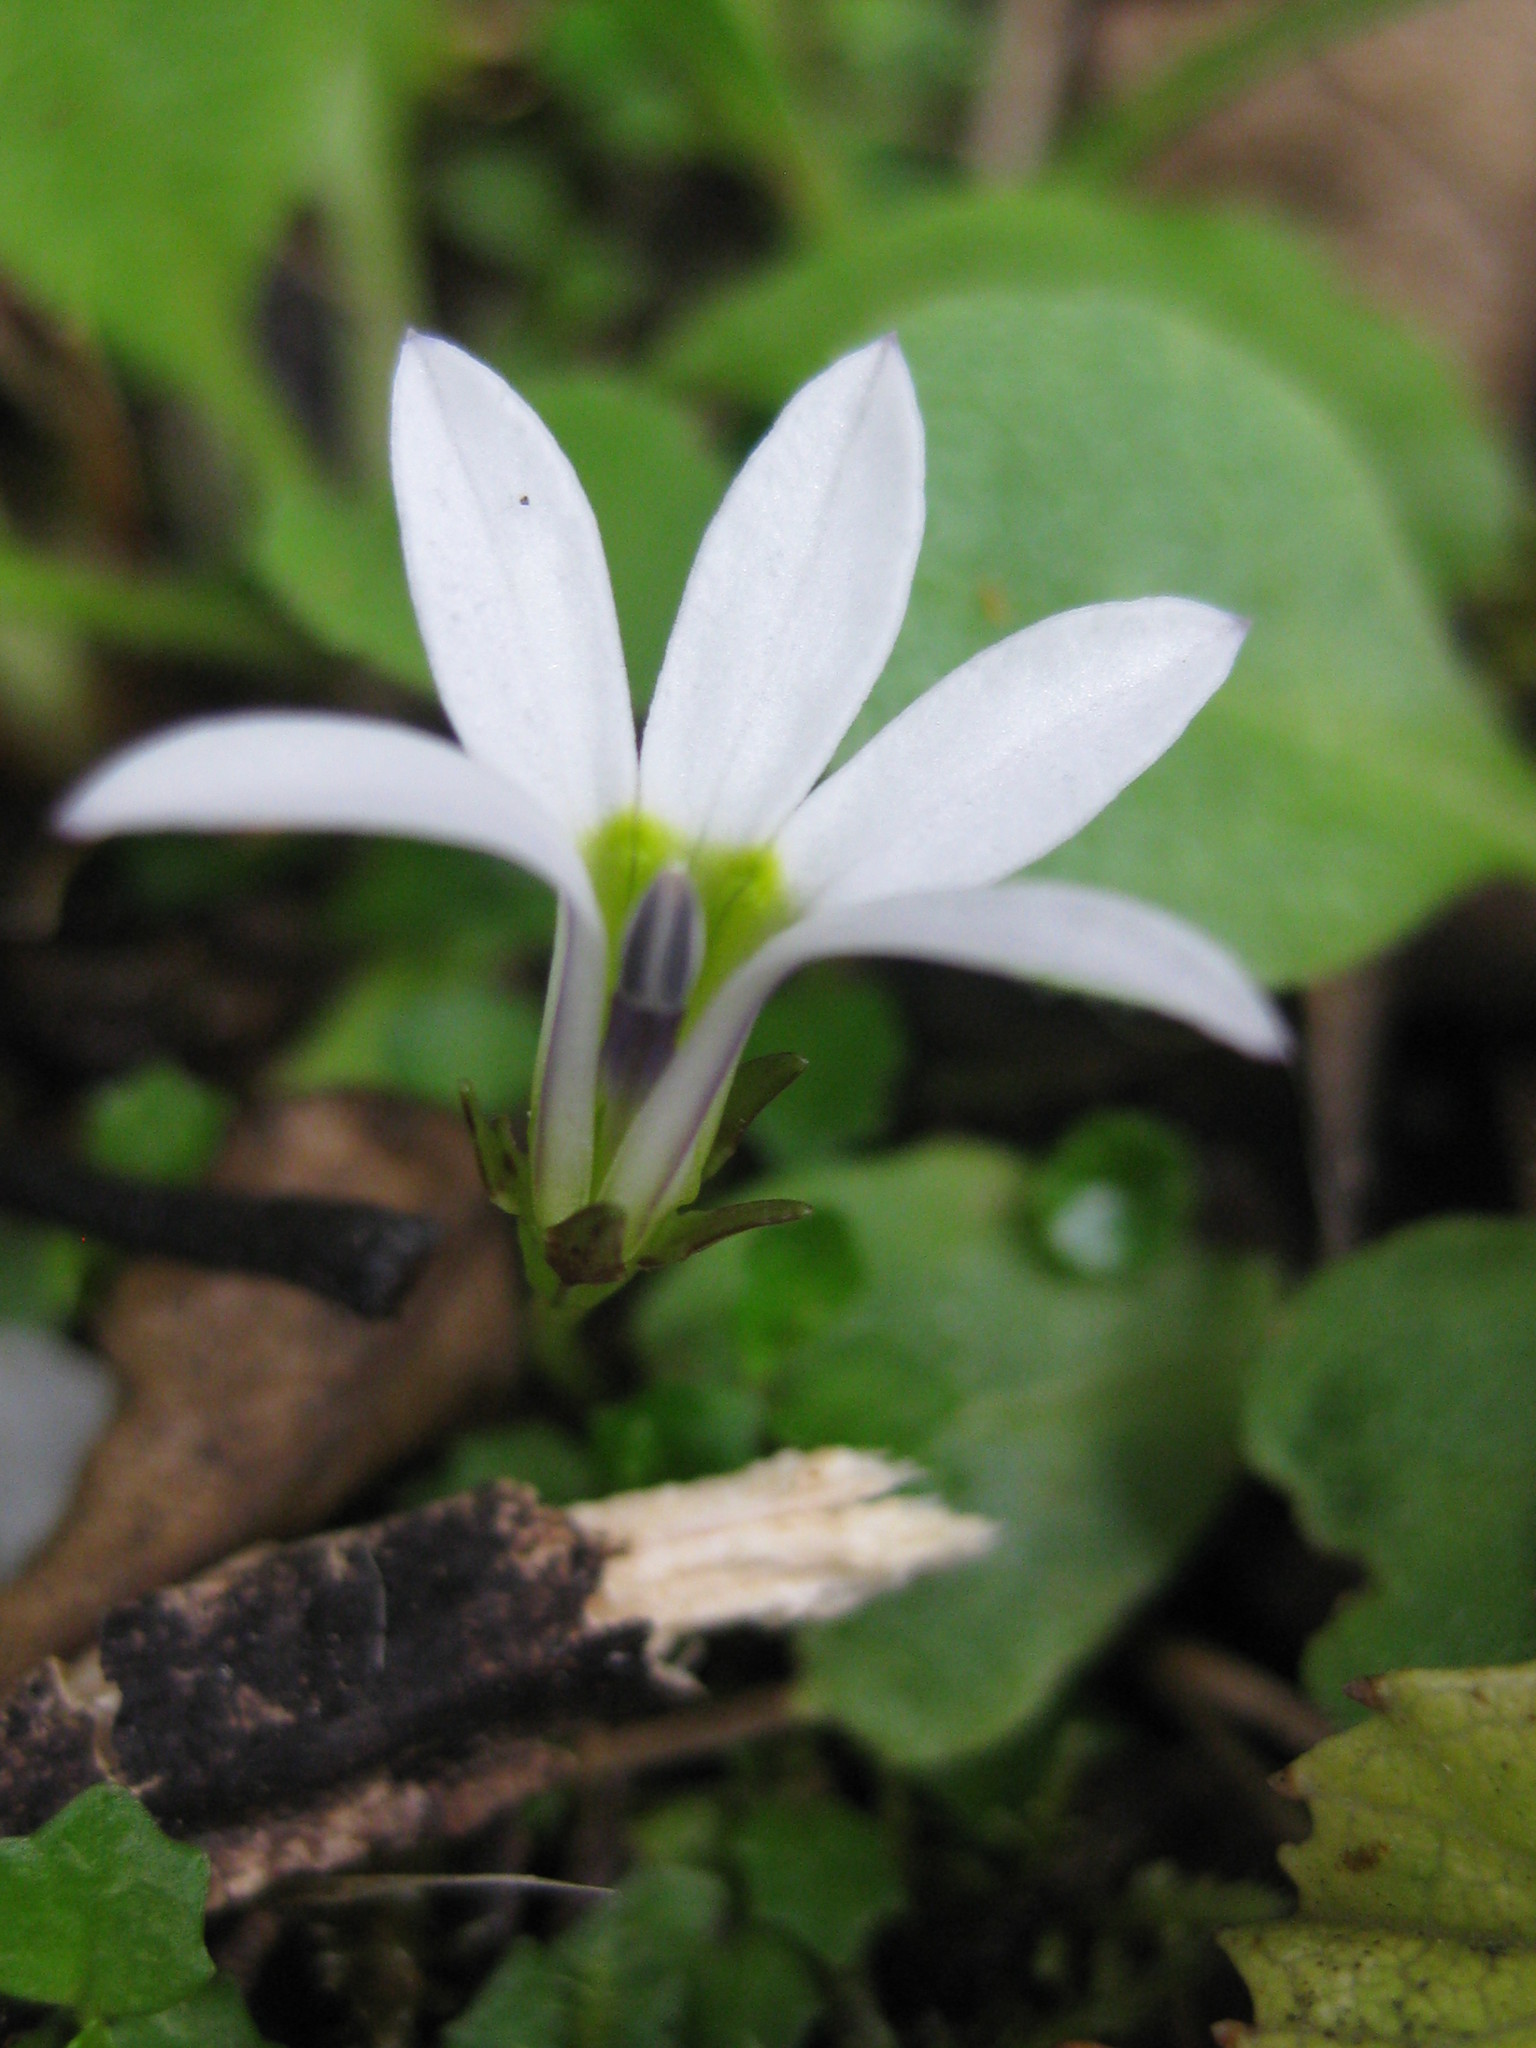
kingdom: Plantae
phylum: Tracheophyta
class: Magnoliopsida
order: Asterales
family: Campanulaceae
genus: Lobelia
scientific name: Lobelia angulata
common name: Lawn lobelia
